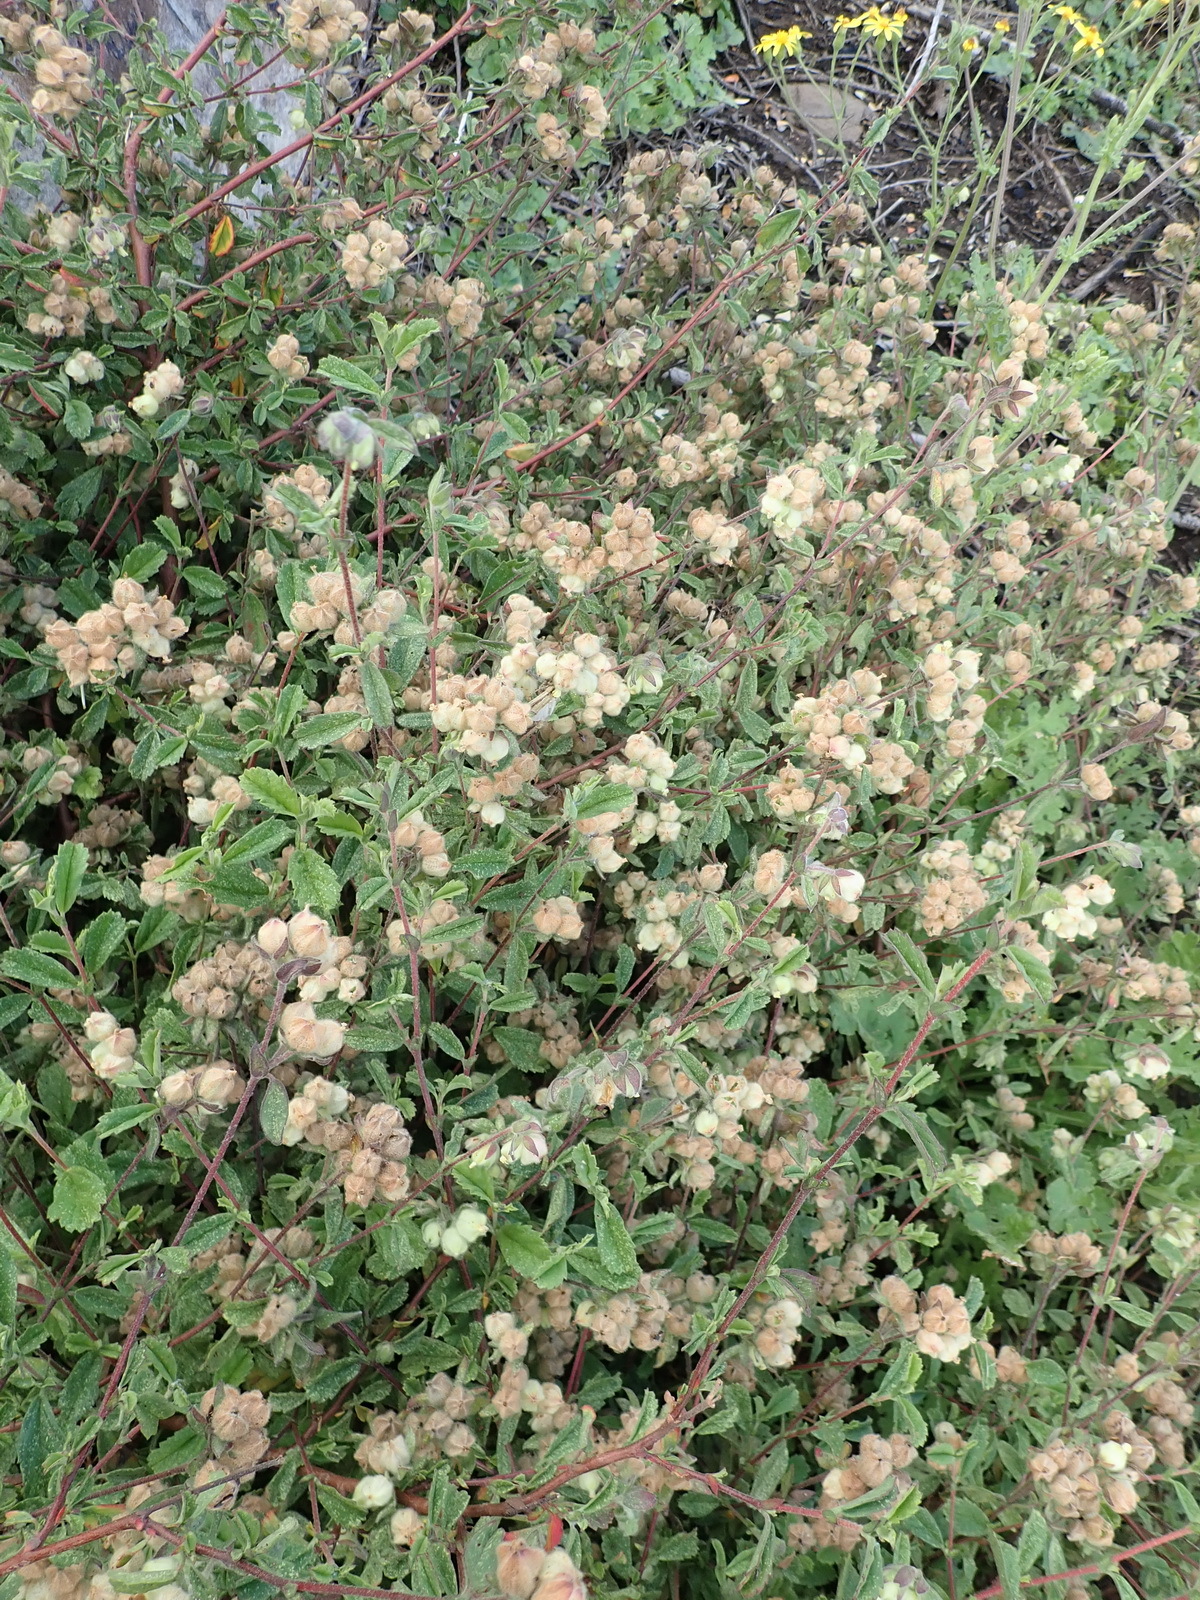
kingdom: Plantae
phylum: Tracheophyta
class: Magnoliopsida
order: Malvales
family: Malvaceae
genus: Hermannia
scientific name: Hermannia hyssopifolia
